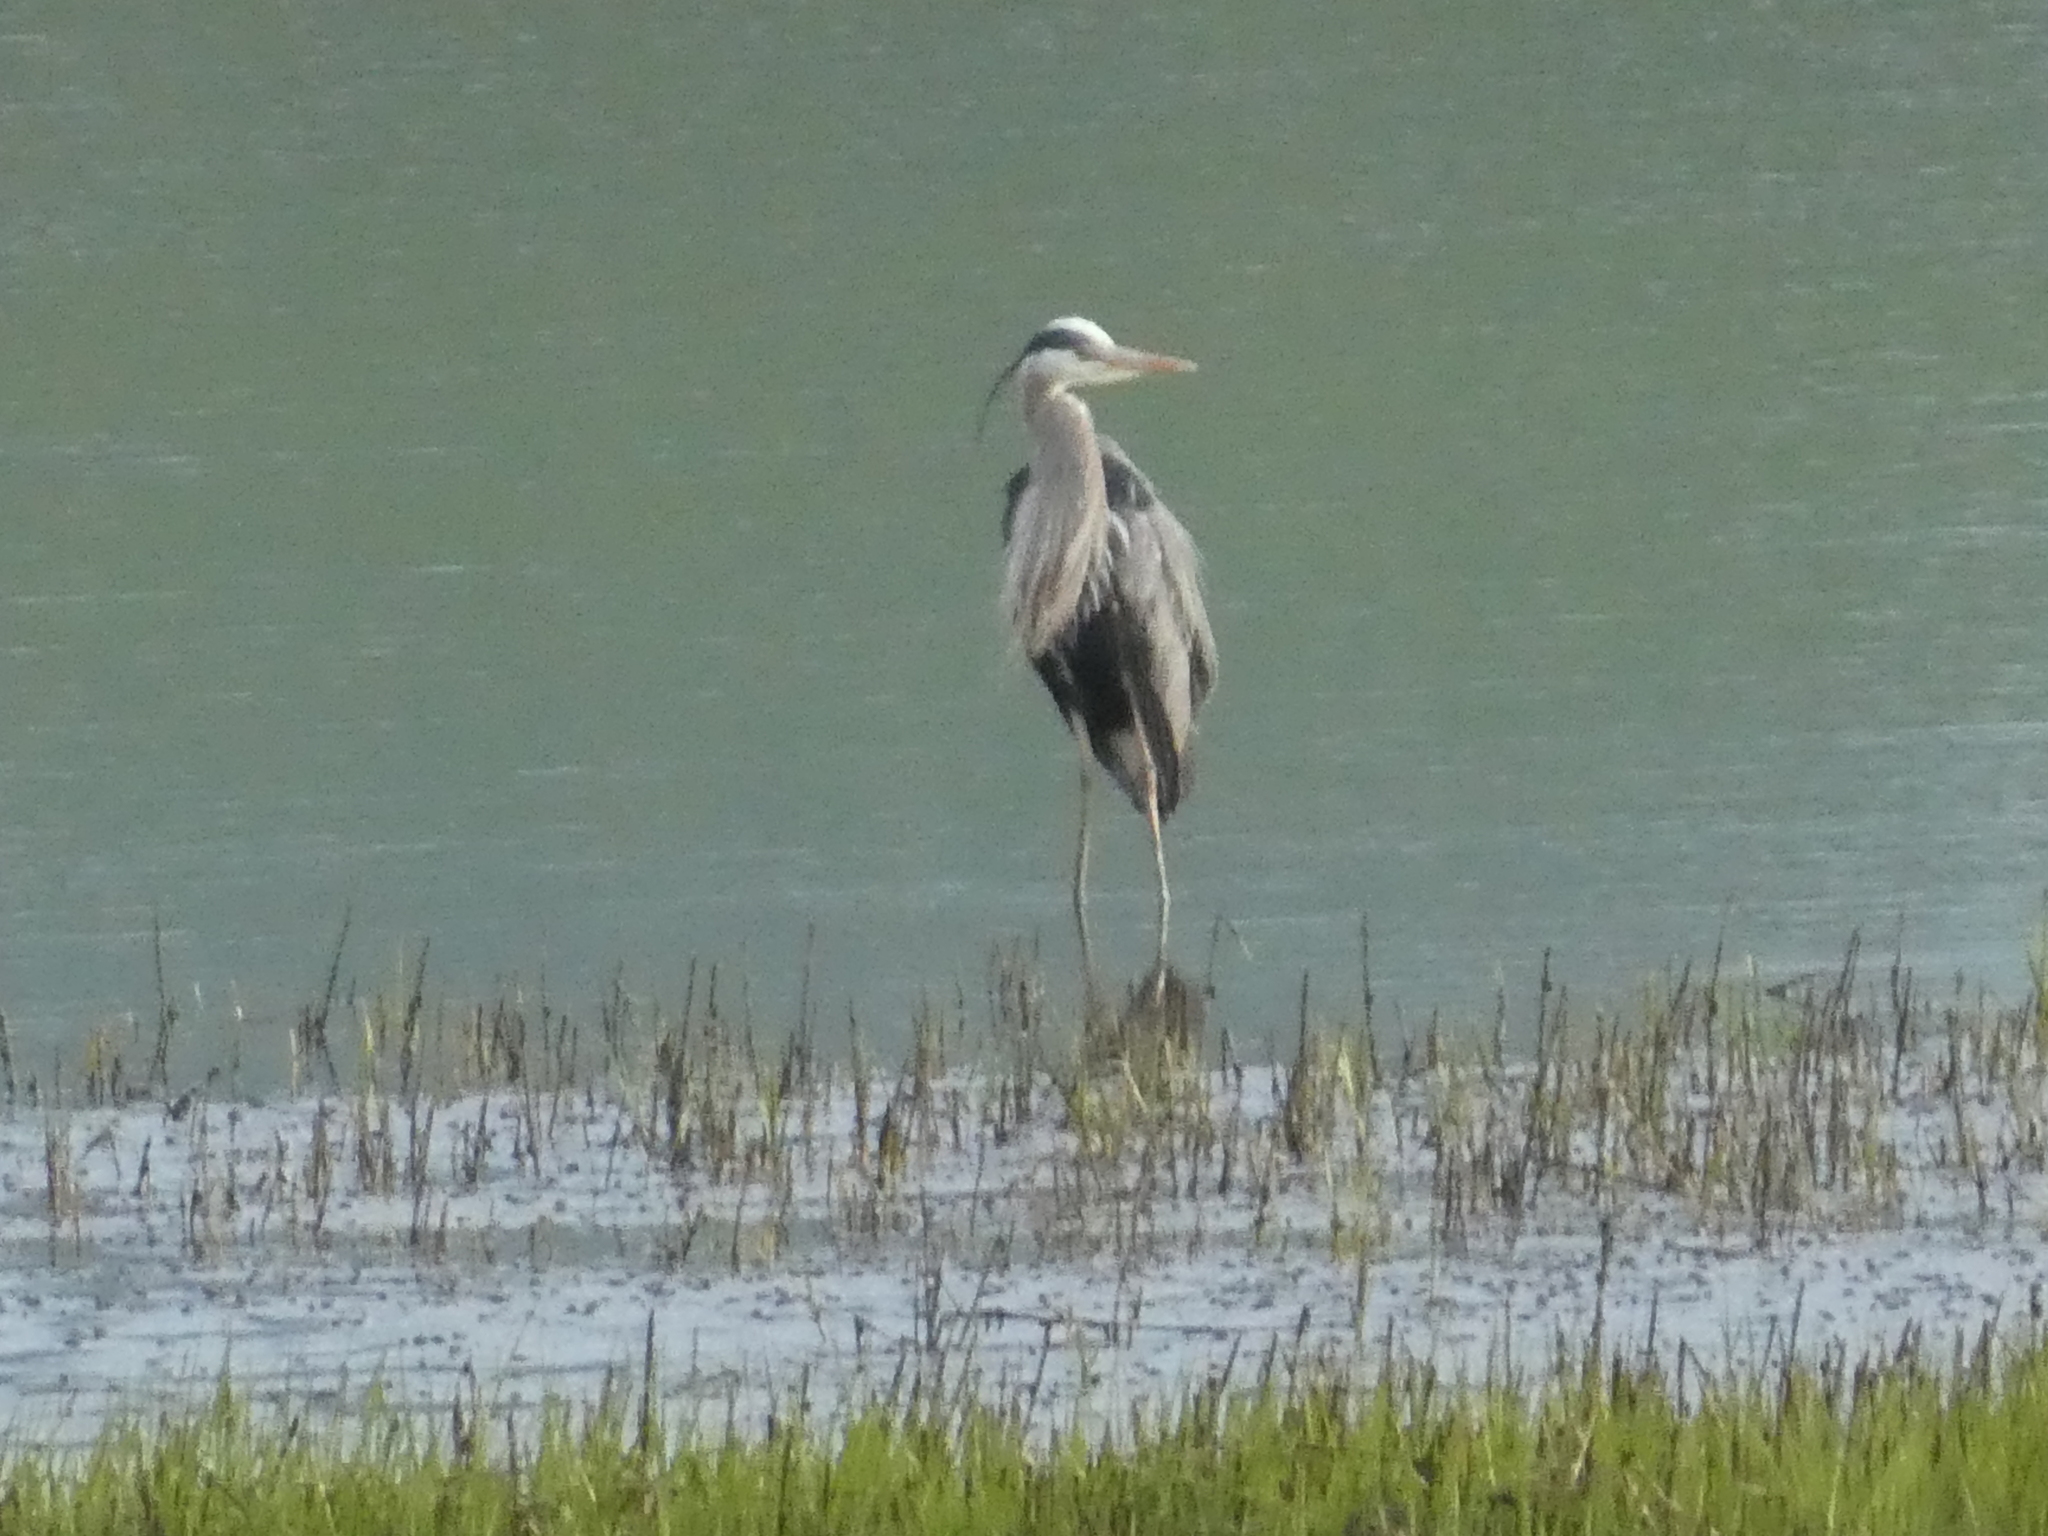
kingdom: Animalia
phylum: Chordata
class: Aves
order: Pelecaniformes
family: Ardeidae
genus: Ardea
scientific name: Ardea herodias
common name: Great blue heron
